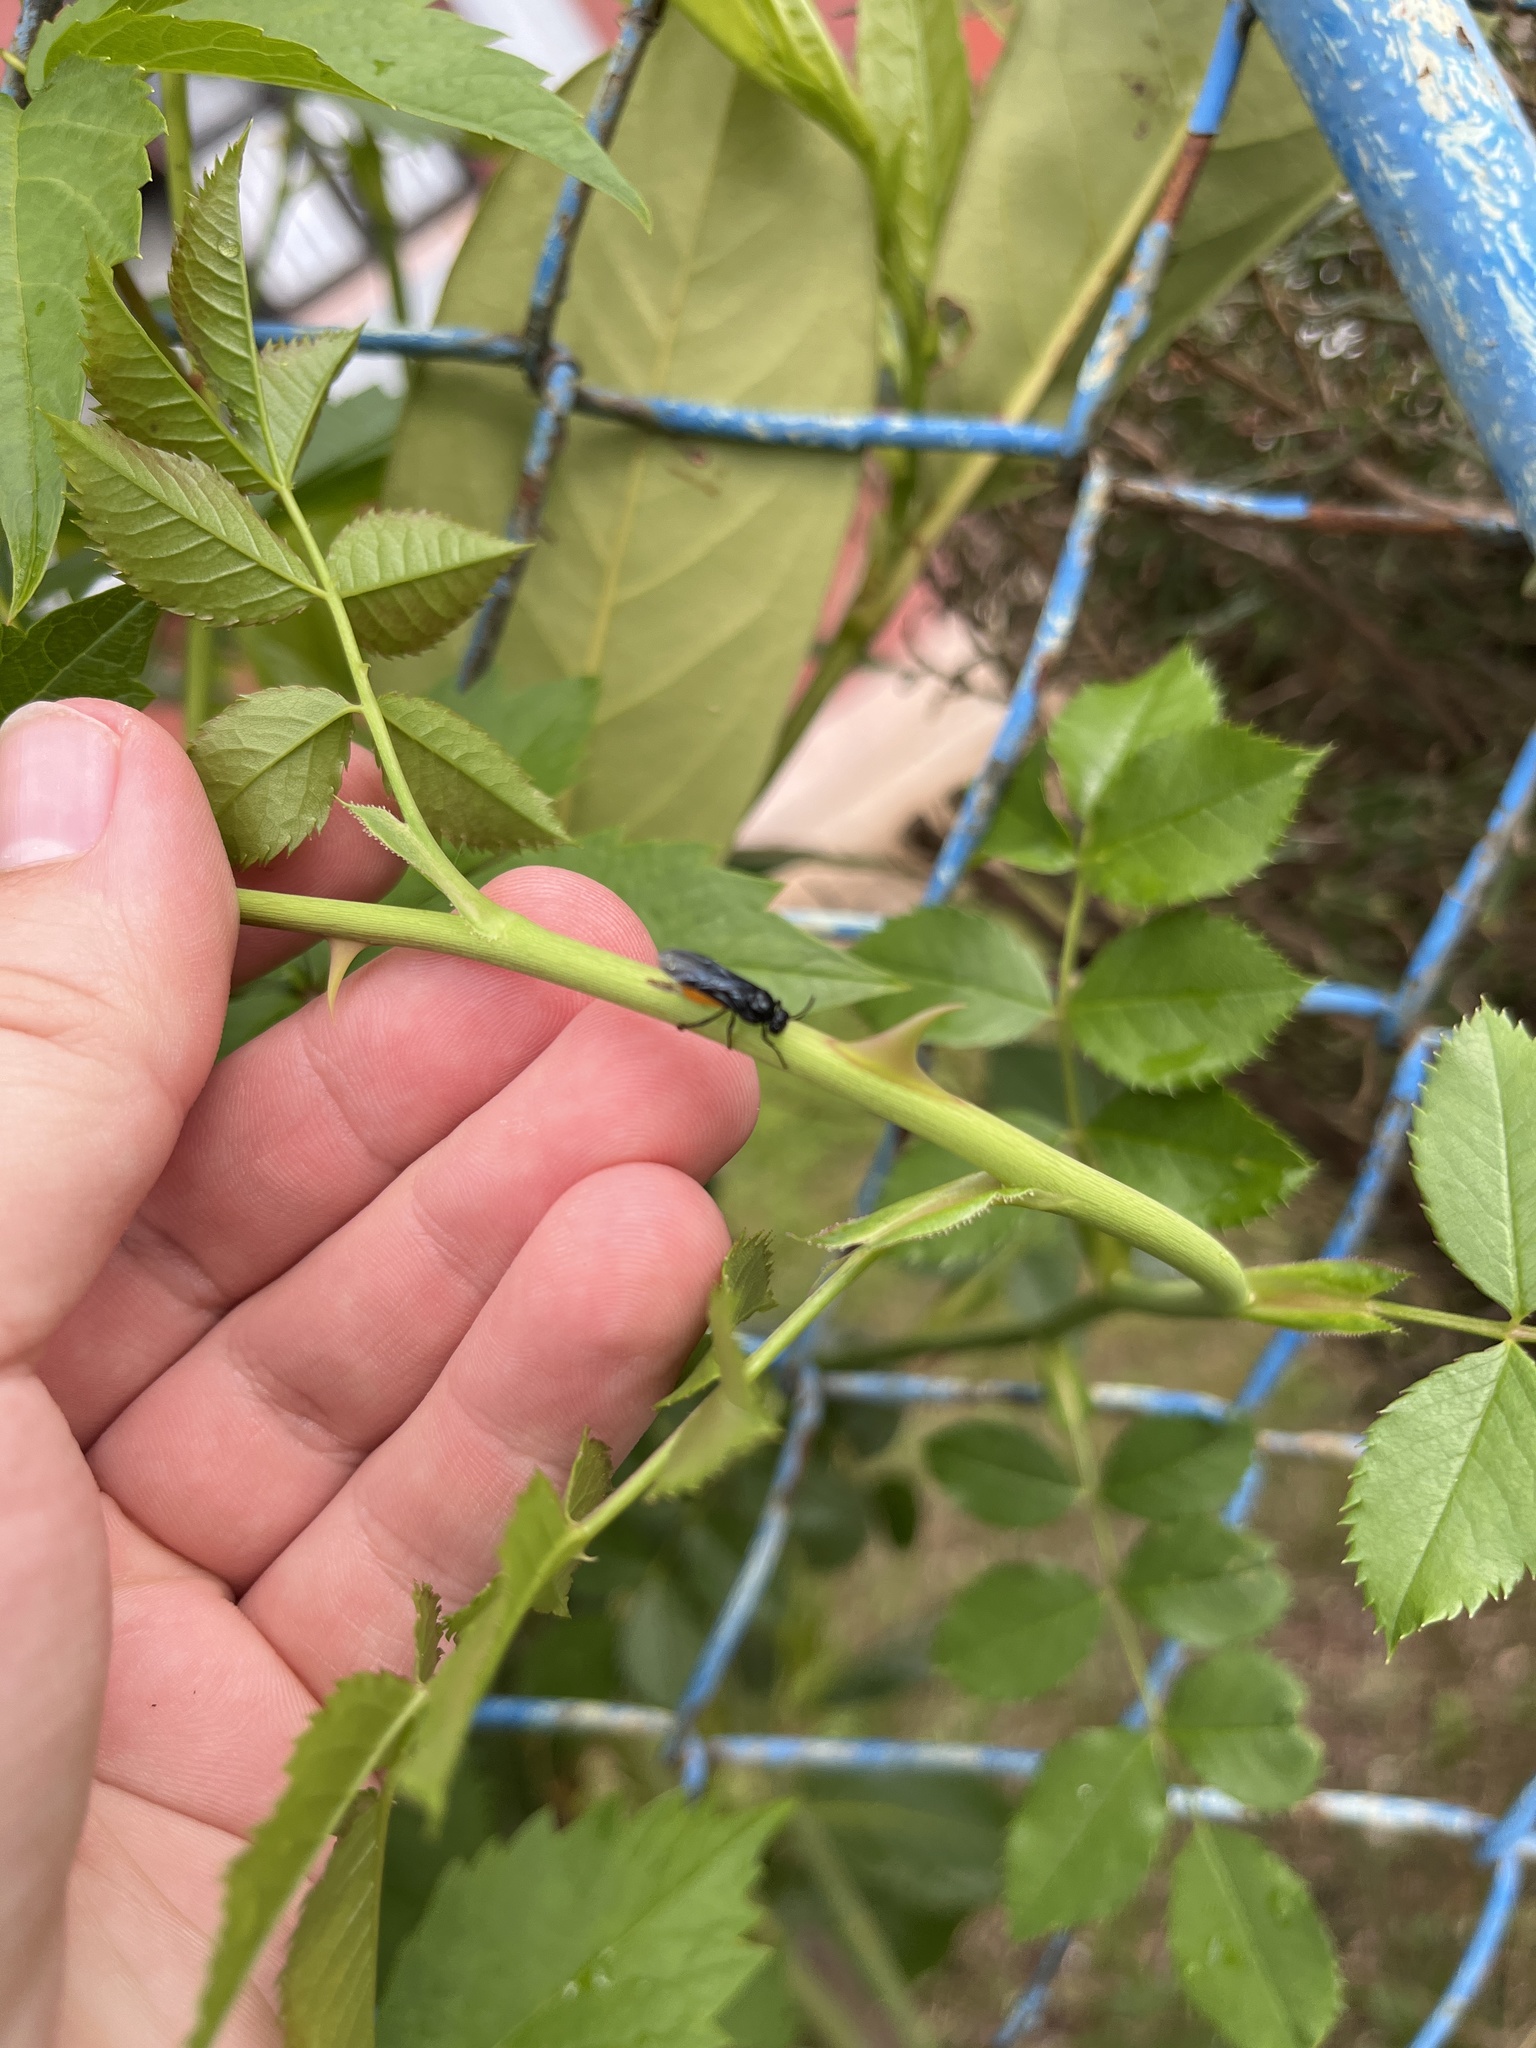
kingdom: Animalia
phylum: Arthropoda
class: Insecta
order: Hymenoptera
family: Argidae
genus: Arge
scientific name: Arge pagana
